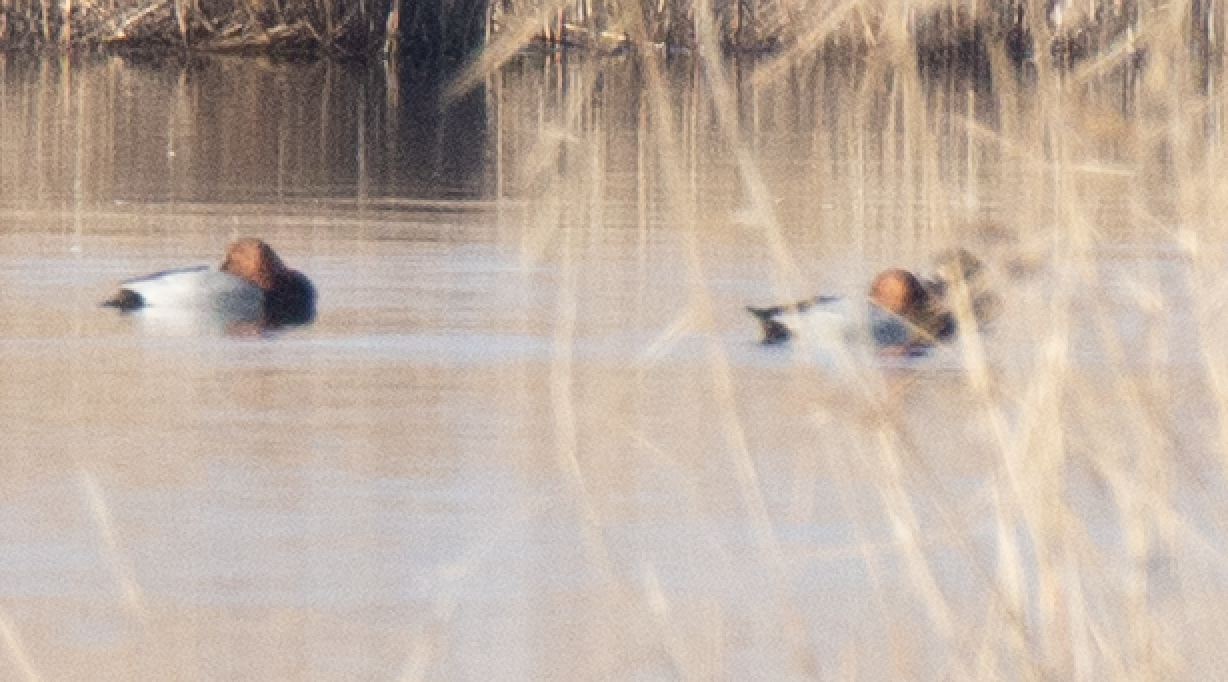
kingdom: Animalia
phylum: Chordata
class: Aves
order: Anseriformes
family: Anatidae
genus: Aythya
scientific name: Aythya ferina
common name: Common pochard
